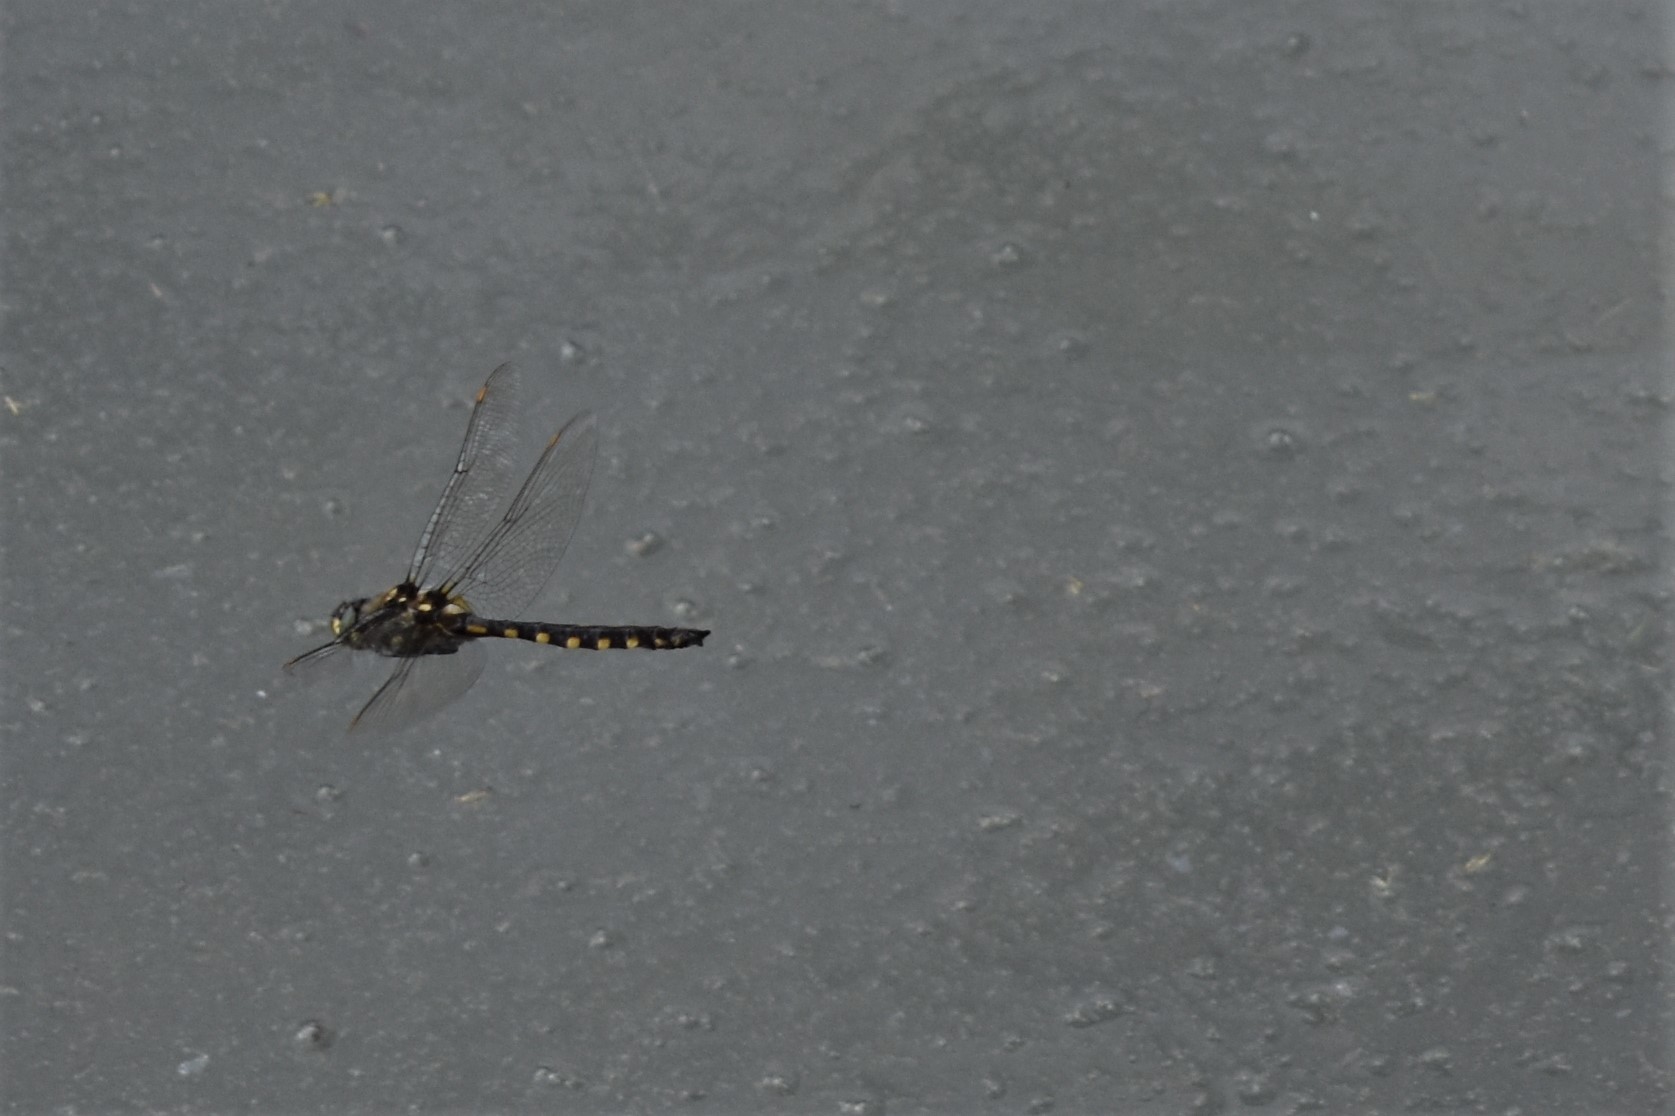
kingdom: Animalia
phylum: Arthropoda
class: Insecta
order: Odonata
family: Corduliidae
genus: Procordulia
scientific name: Procordulia grayi
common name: Yellow spotted dragonfly
